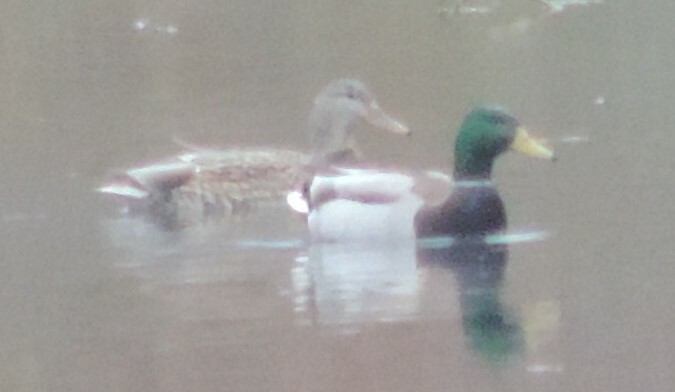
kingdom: Animalia
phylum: Chordata
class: Aves
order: Anseriformes
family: Anatidae
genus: Anas
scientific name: Anas platyrhynchos
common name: Mallard
